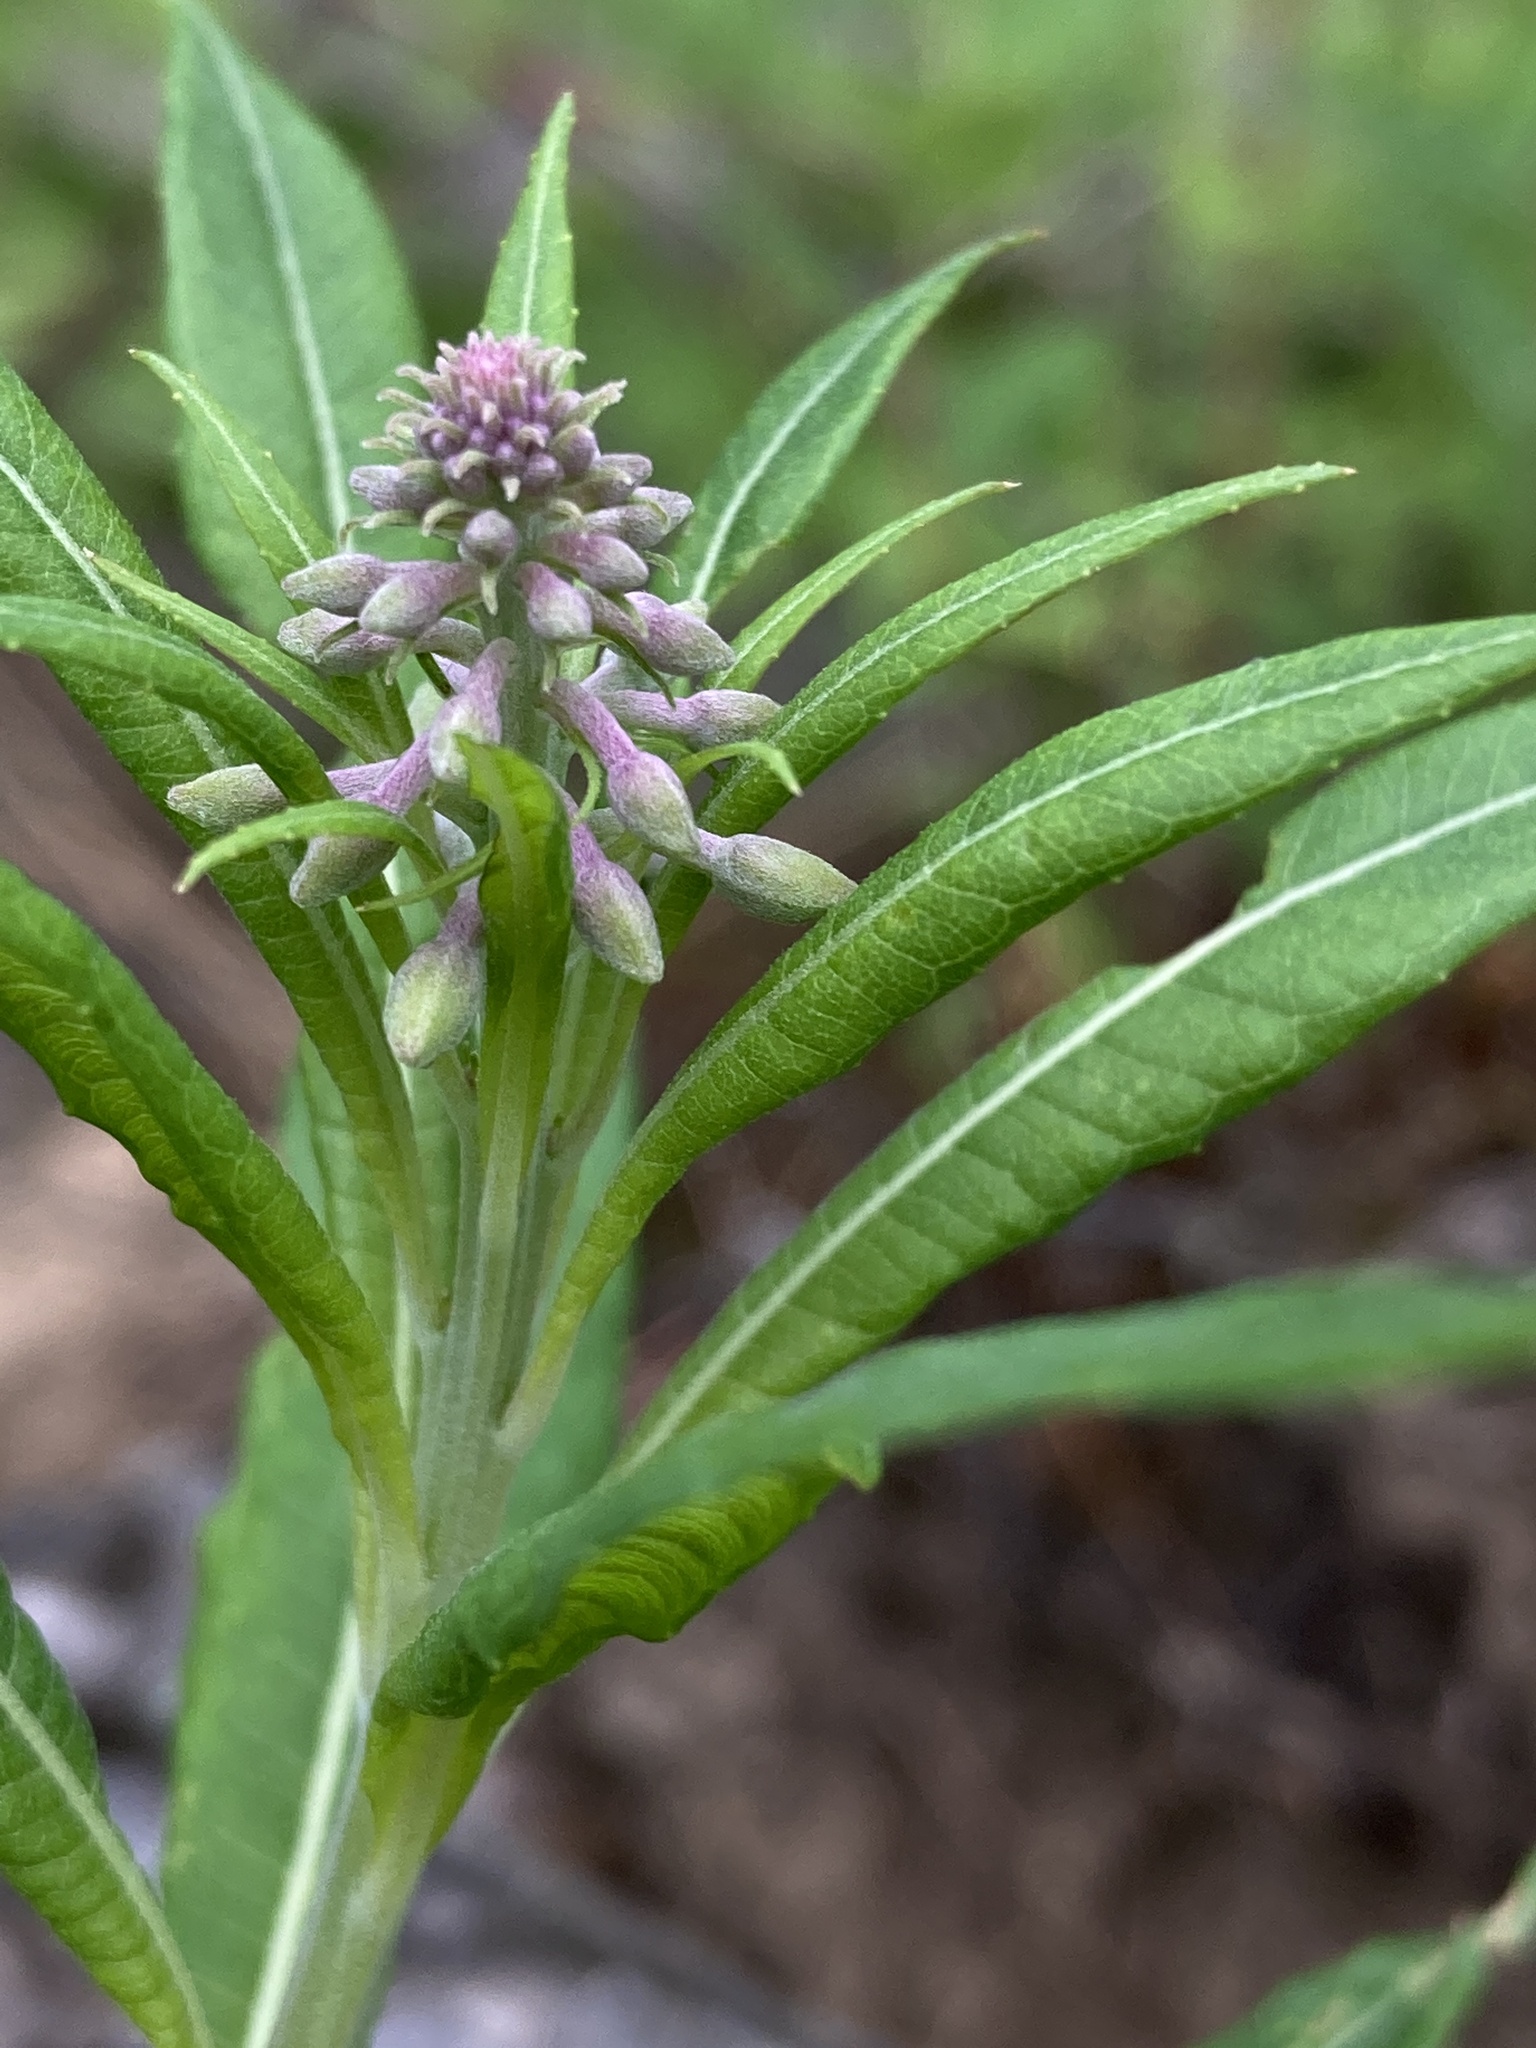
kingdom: Plantae
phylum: Tracheophyta
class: Magnoliopsida
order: Myrtales
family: Onagraceae
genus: Chamaenerion
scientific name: Chamaenerion angustifolium
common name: Fireweed
